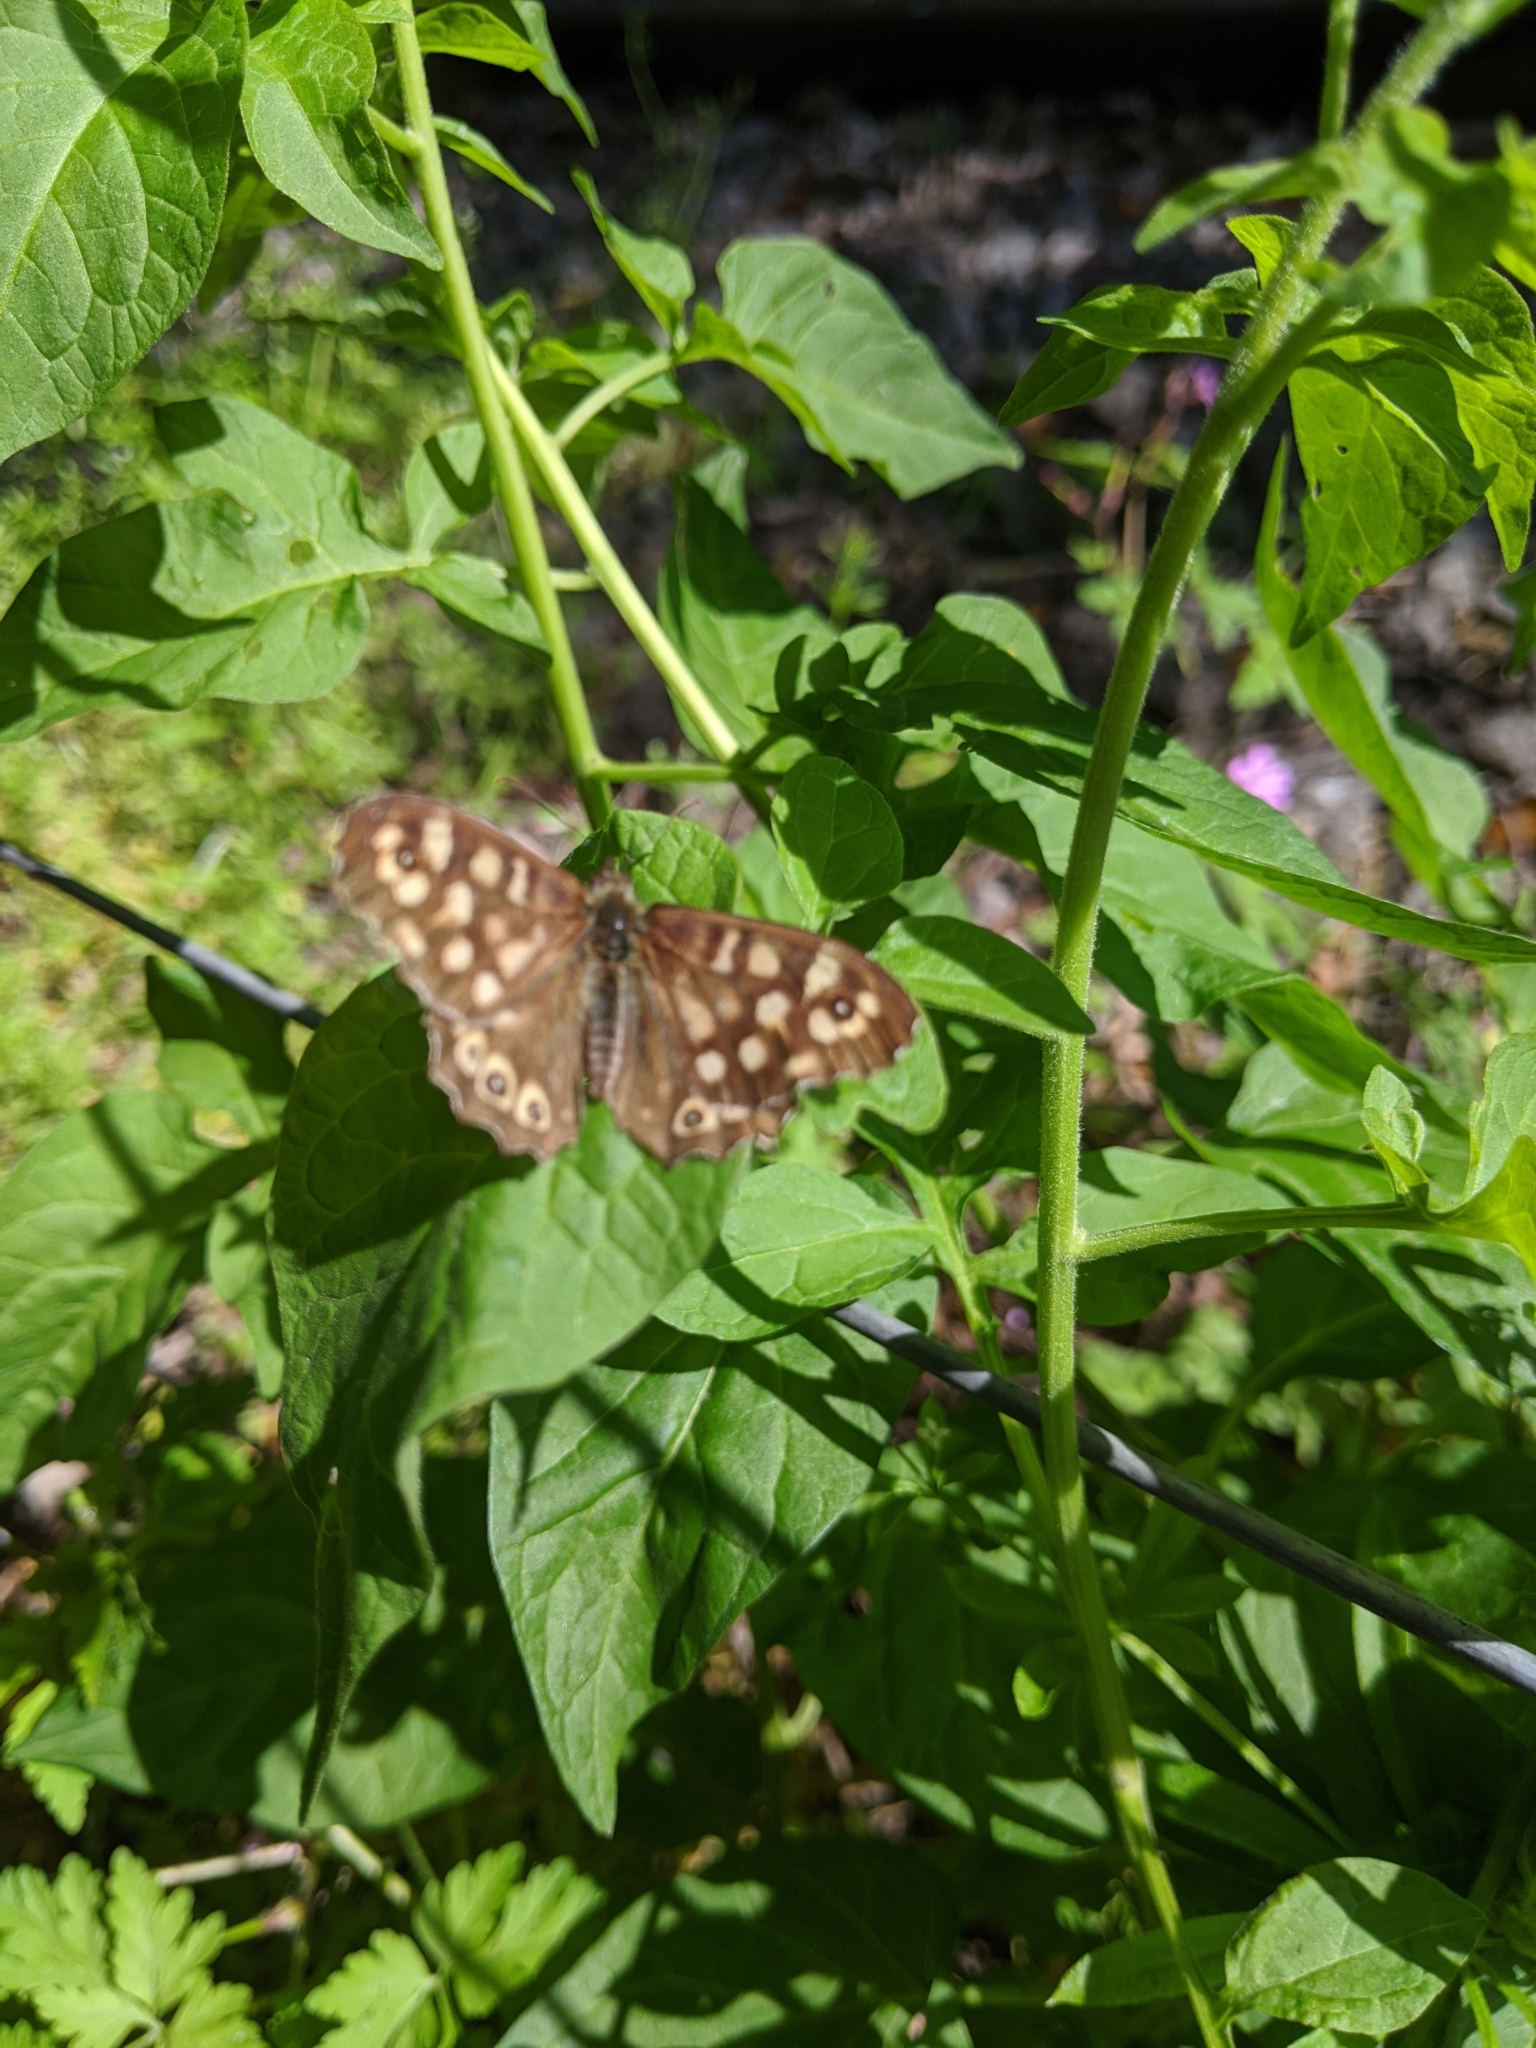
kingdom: Animalia
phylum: Arthropoda
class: Insecta
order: Lepidoptera
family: Nymphalidae
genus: Pararge
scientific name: Pararge aegeria
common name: Speckled wood
